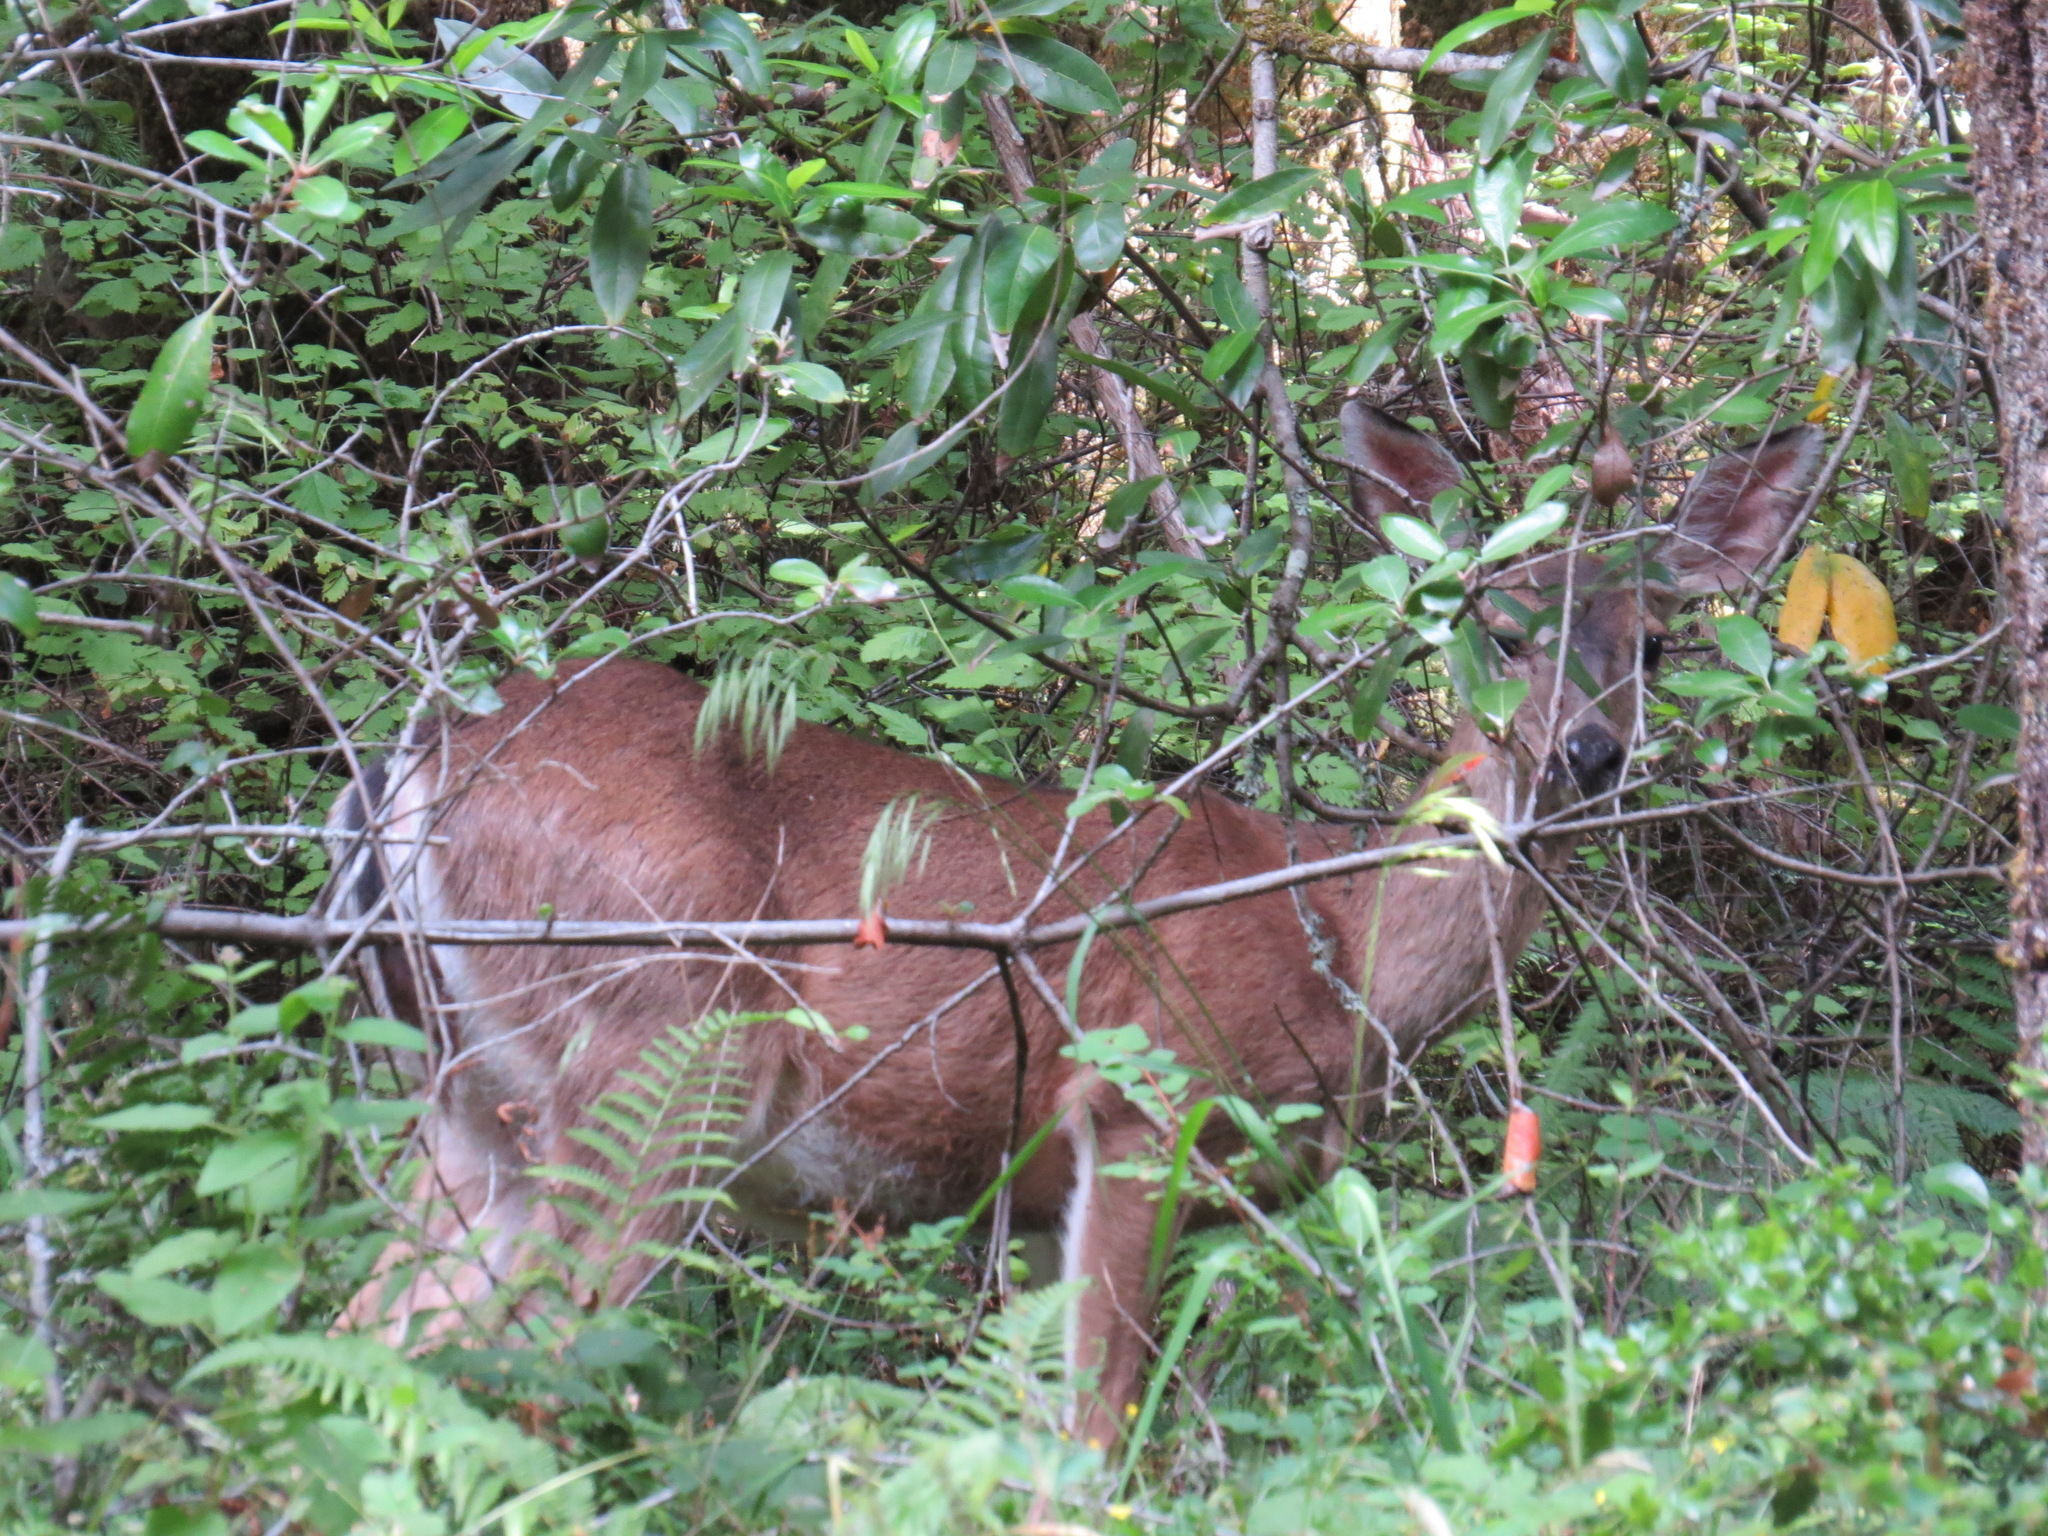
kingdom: Animalia
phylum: Chordata
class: Mammalia
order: Artiodactyla
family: Cervidae
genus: Odocoileus
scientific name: Odocoileus hemionus
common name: Mule deer
